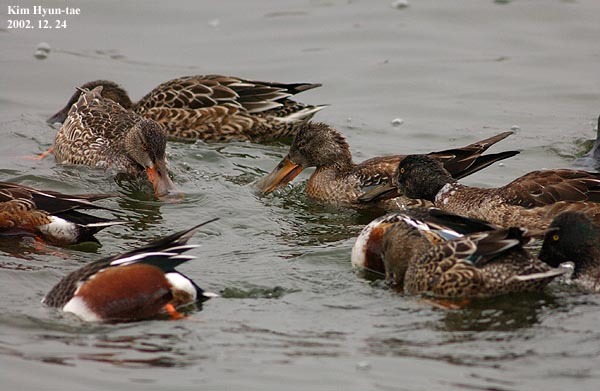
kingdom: Animalia
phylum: Chordata
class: Aves
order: Anseriformes
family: Anatidae
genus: Spatula
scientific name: Spatula clypeata
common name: Northern shoveler
